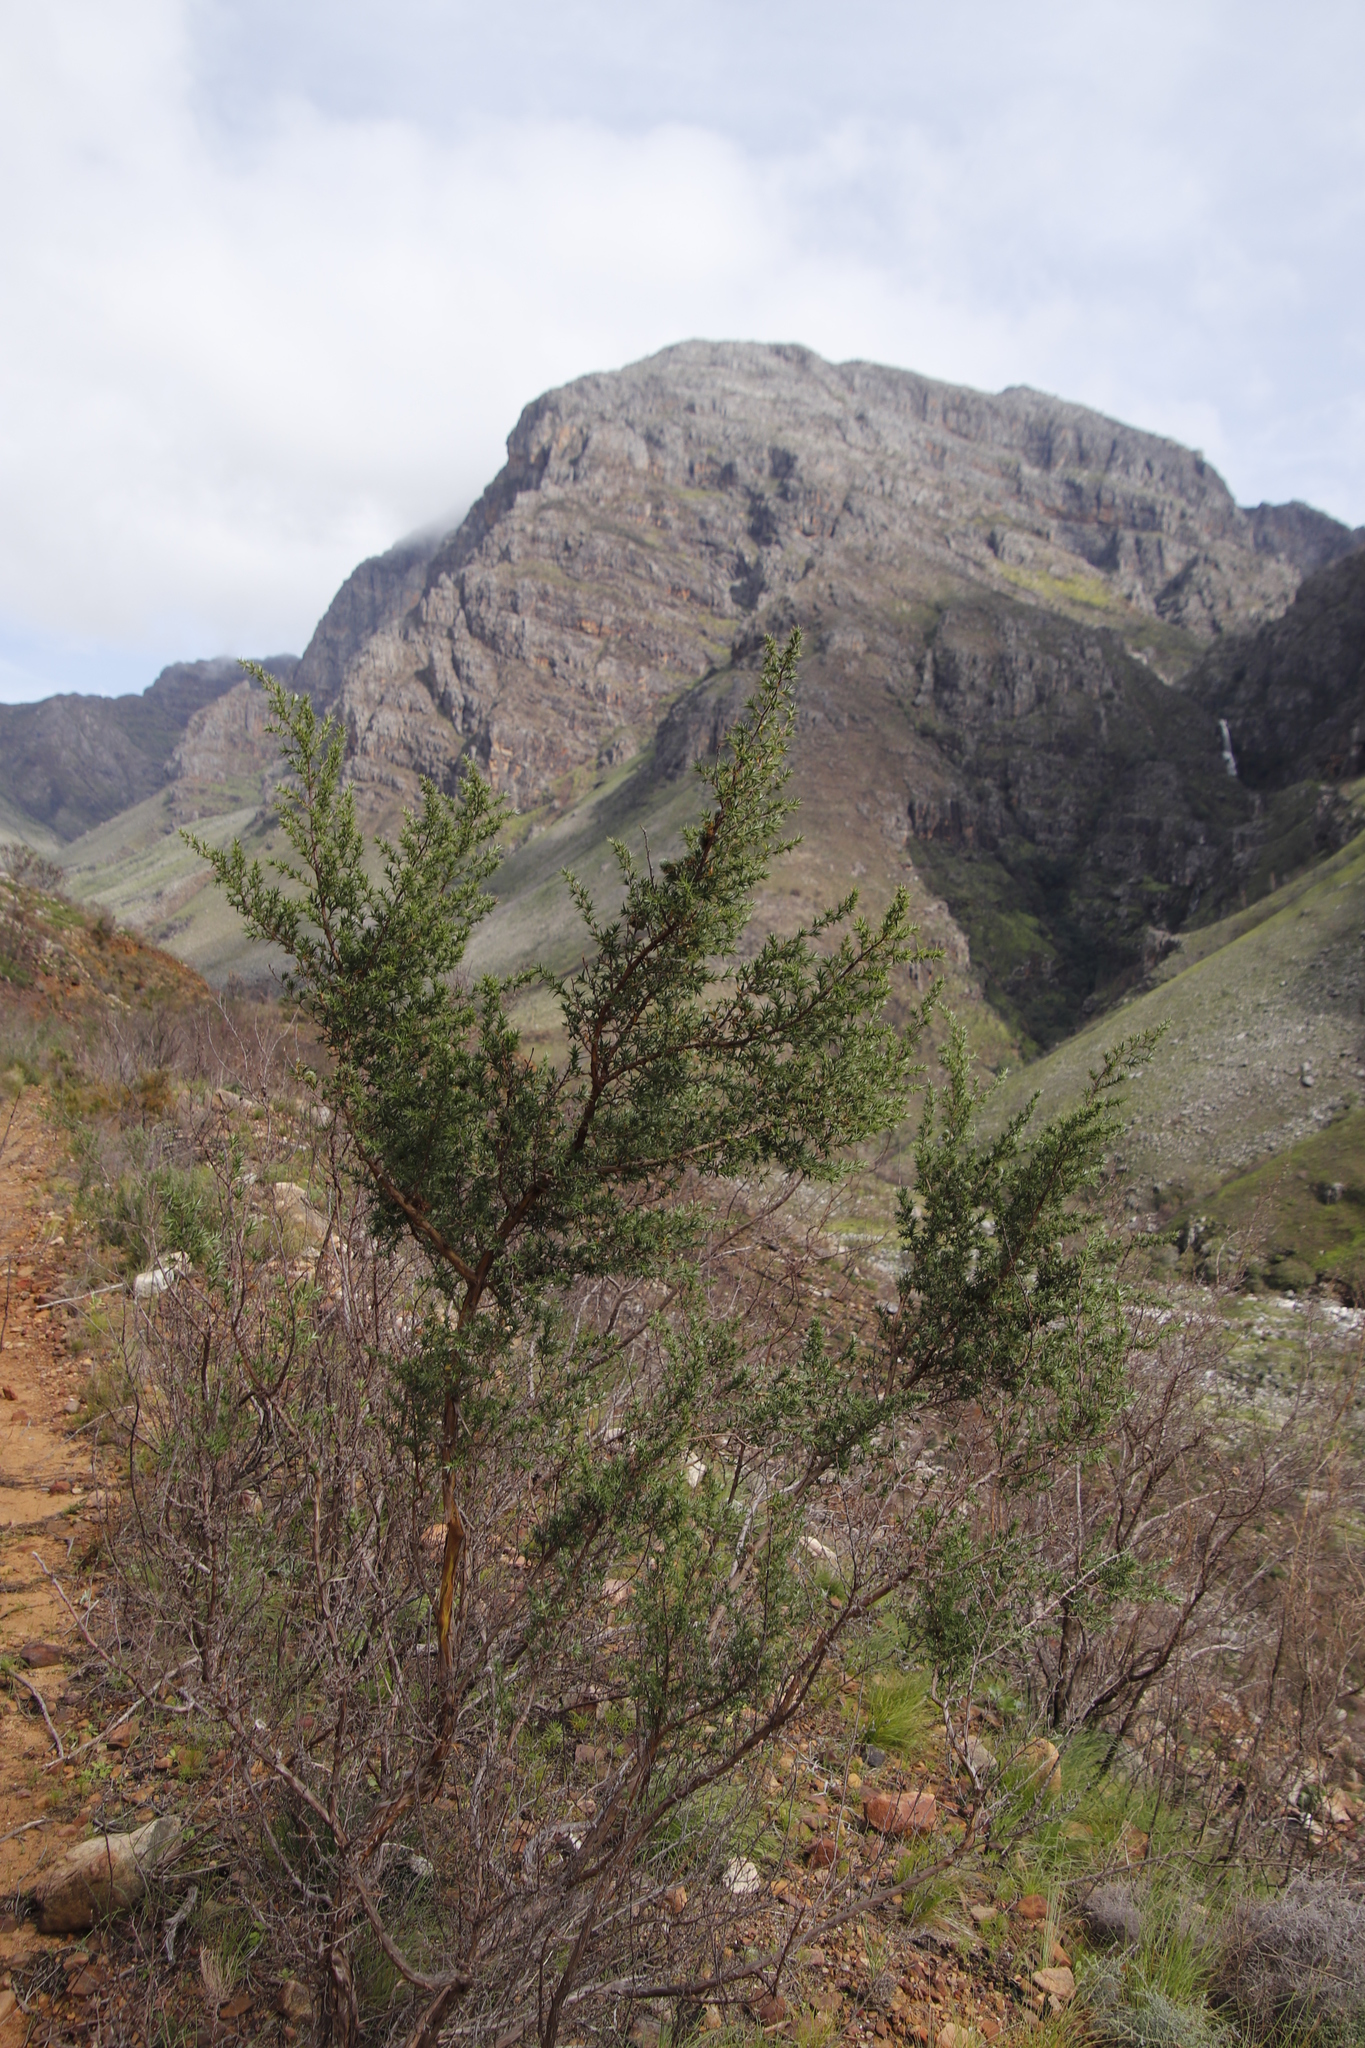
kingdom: Plantae
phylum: Tracheophyta
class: Magnoliopsida
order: Rosales
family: Rosaceae
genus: Cliffortia
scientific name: Cliffortia ruscifolia
